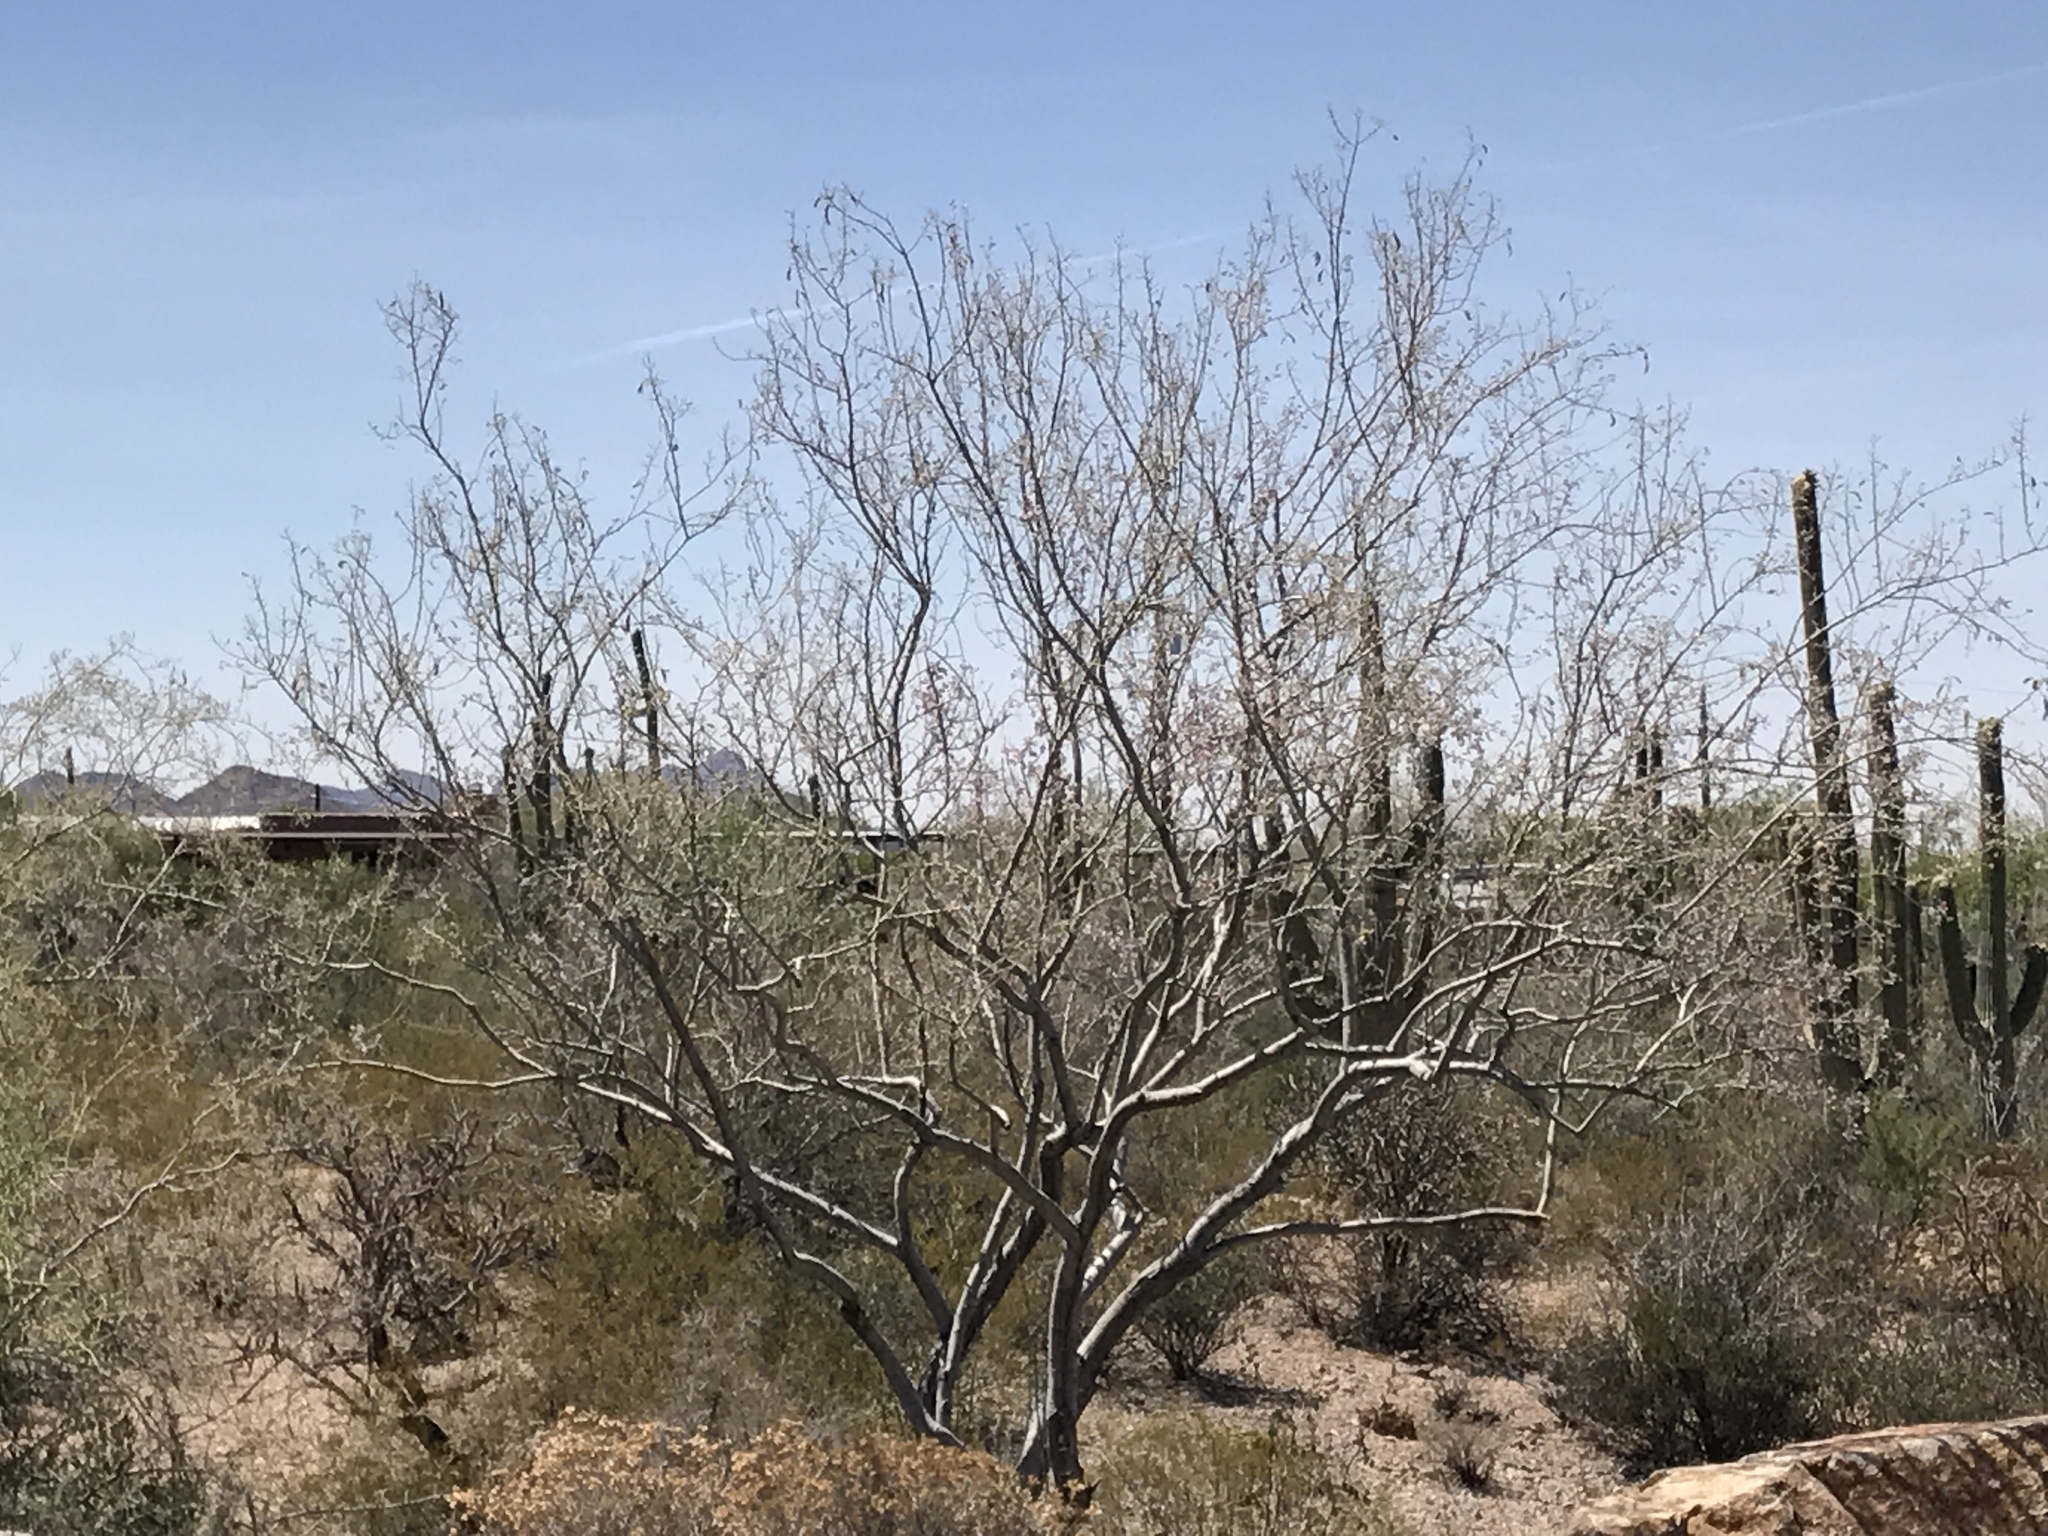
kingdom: Plantae
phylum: Tracheophyta
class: Magnoliopsida
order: Fabales
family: Fabaceae
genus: Olneya
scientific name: Olneya tesota
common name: Desert ironwood
